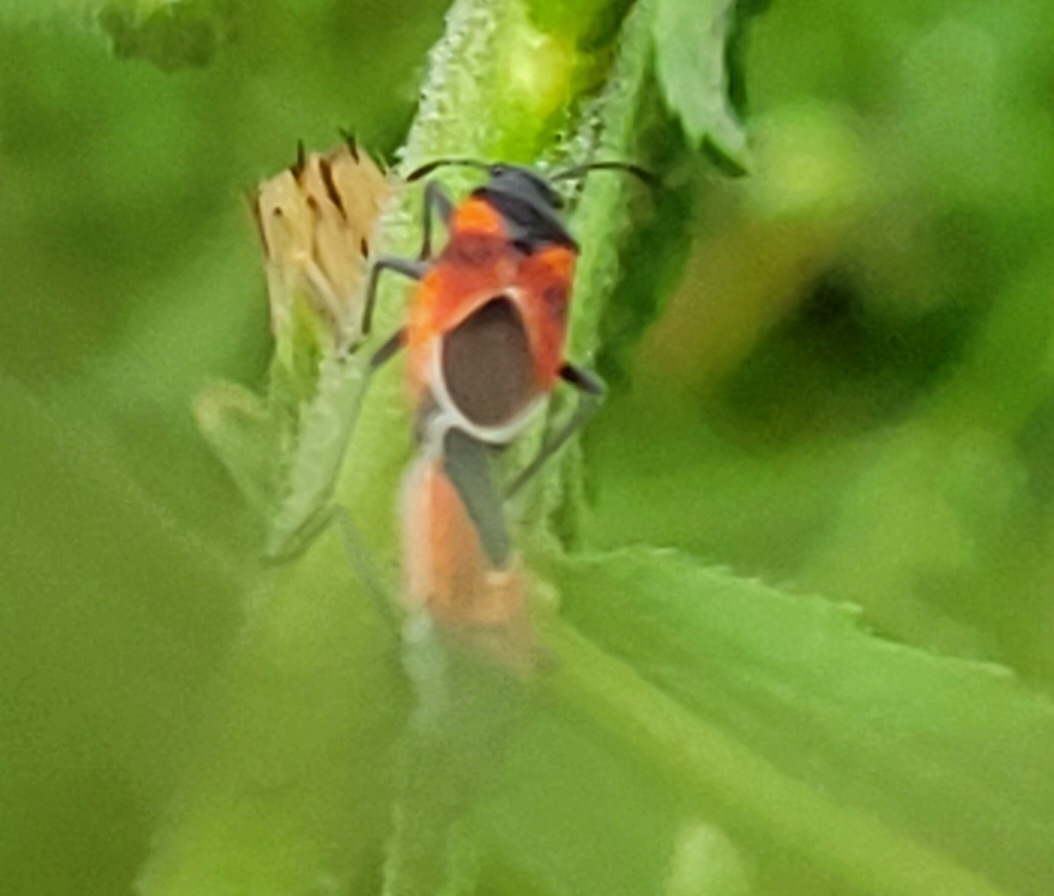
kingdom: Animalia
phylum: Arthropoda
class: Insecta
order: Hemiptera
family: Lygaeidae
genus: Melanopleurus
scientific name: Melanopleurus fuscosus
